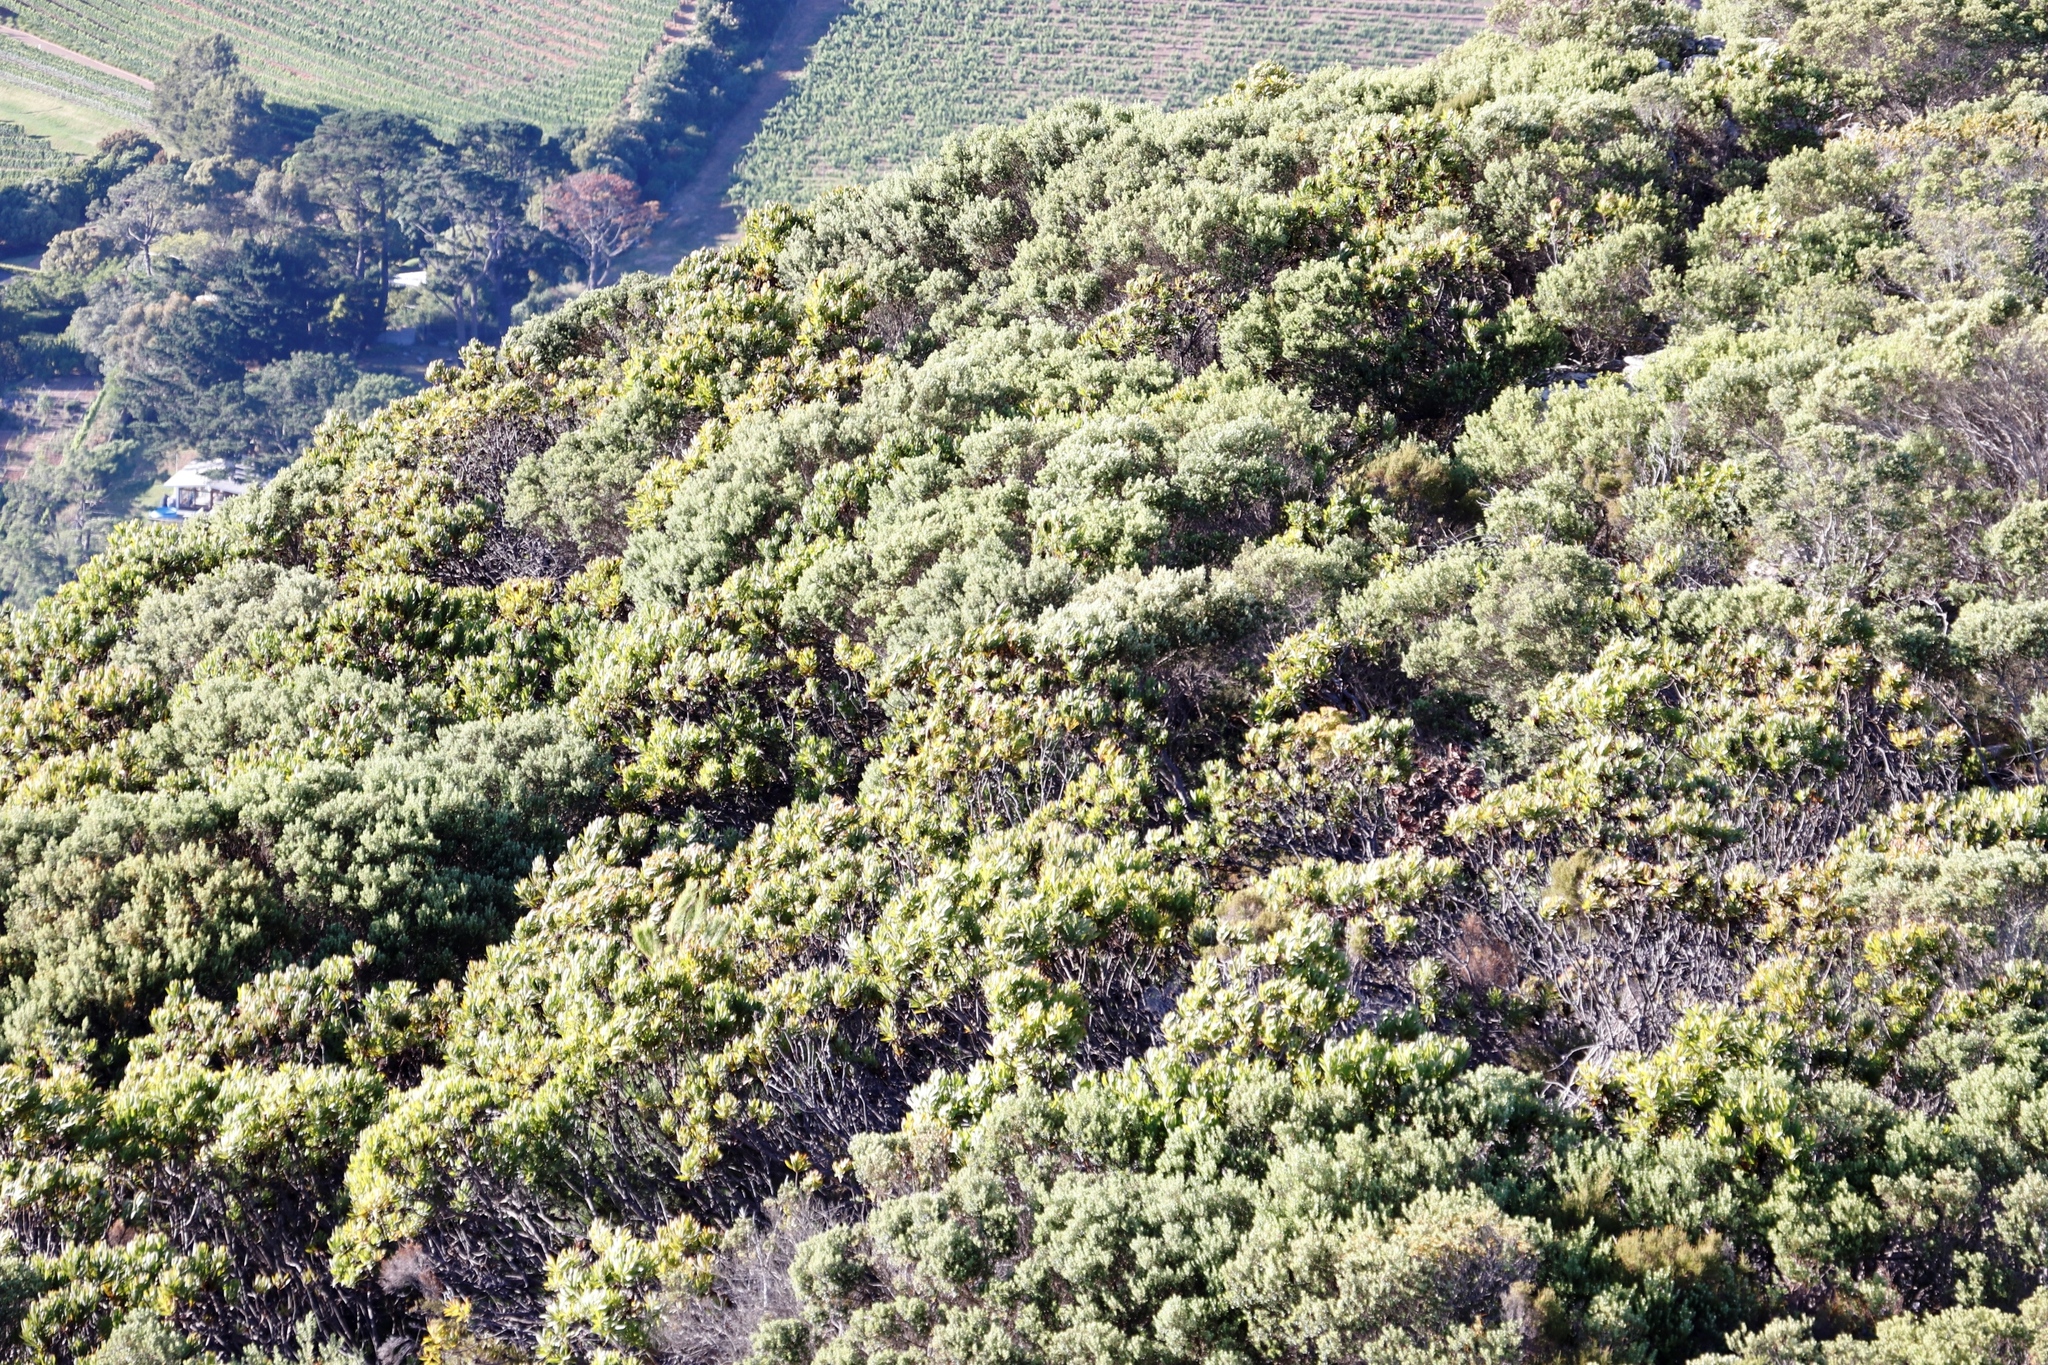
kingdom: Plantae
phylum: Tracheophyta
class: Magnoliopsida
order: Rosales
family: Rhamnaceae
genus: Phylica
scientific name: Phylica buxifolia
